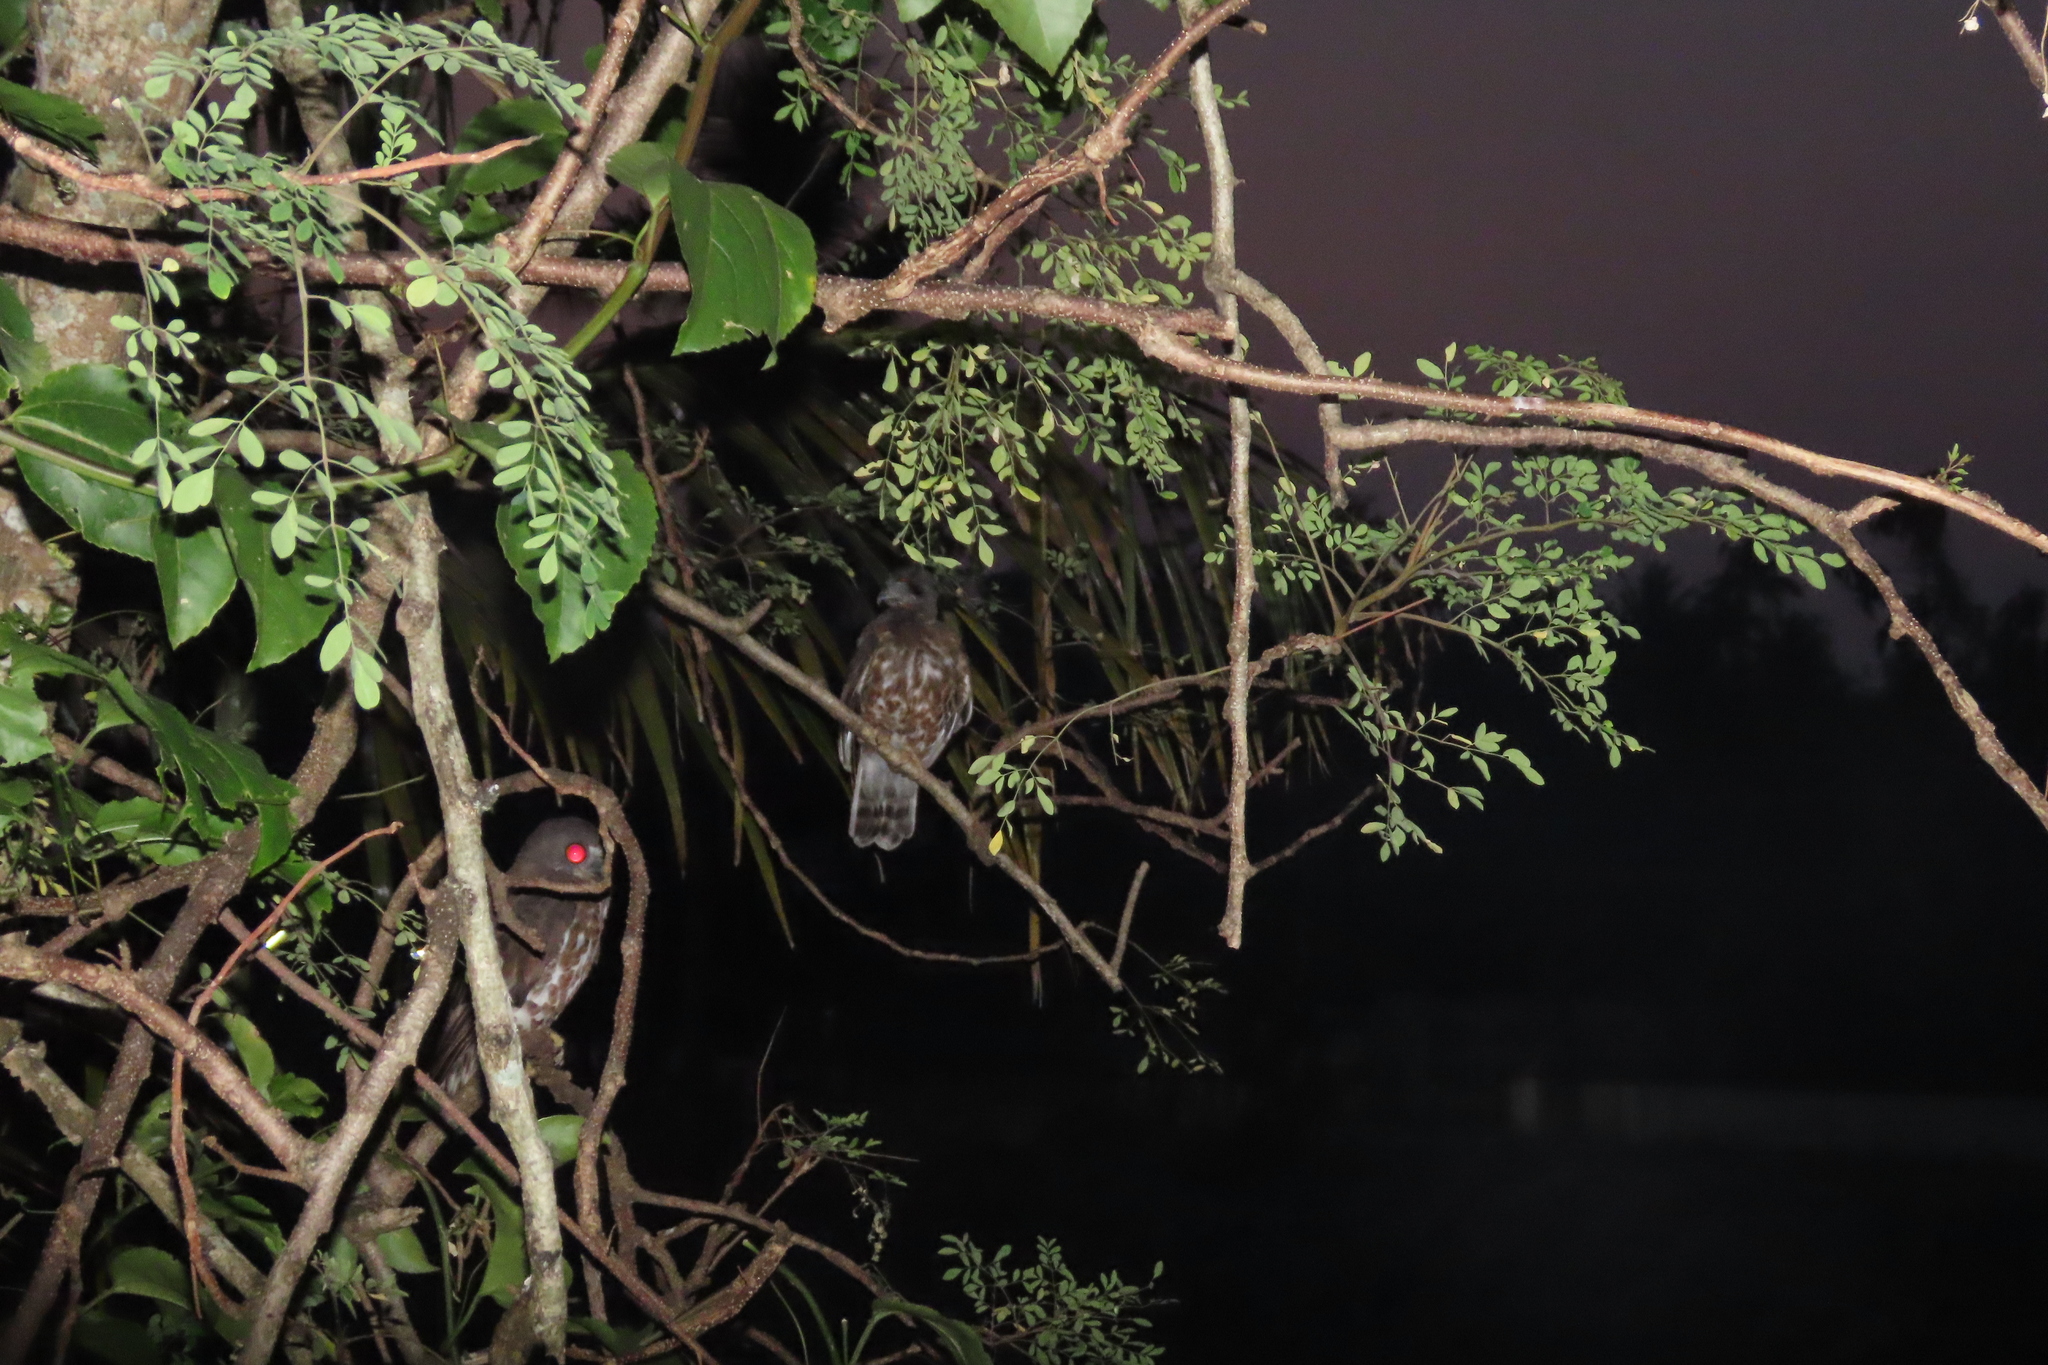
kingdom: Animalia
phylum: Chordata
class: Aves
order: Strigiformes
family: Strigidae
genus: Ninox
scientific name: Ninox scutulata
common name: Brown hawk-owl
